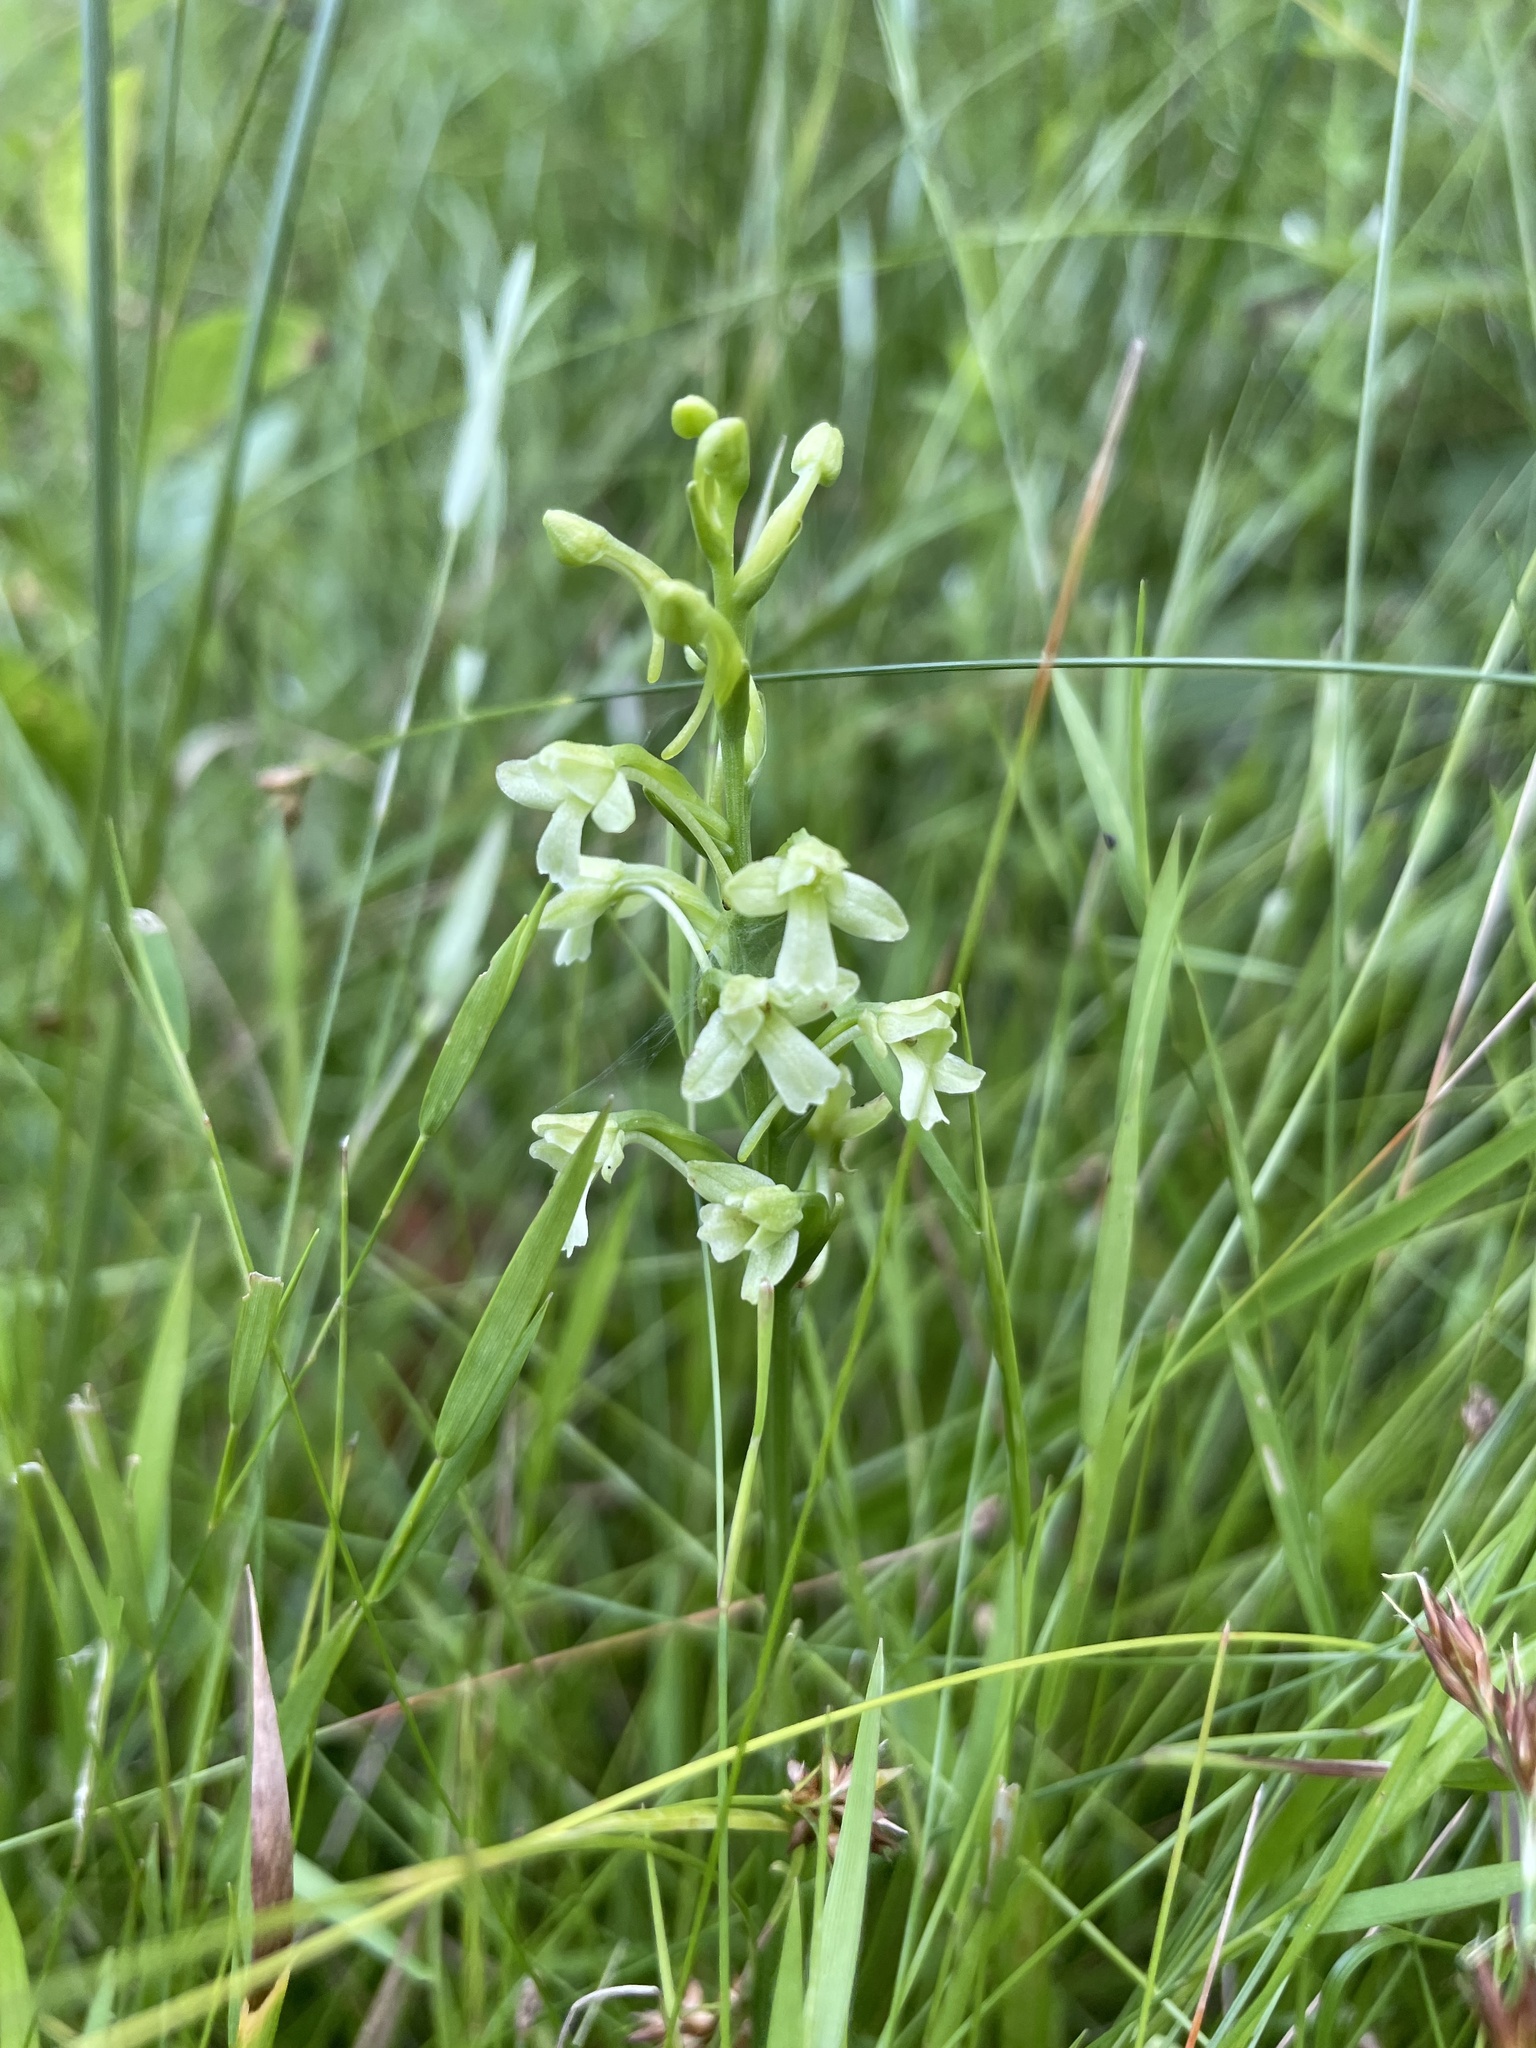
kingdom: Plantae
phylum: Tracheophyta
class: Liliopsida
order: Asparagales
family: Orchidaceae
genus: Platanthera
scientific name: Platanthera clavellata
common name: Club-spur orchid
